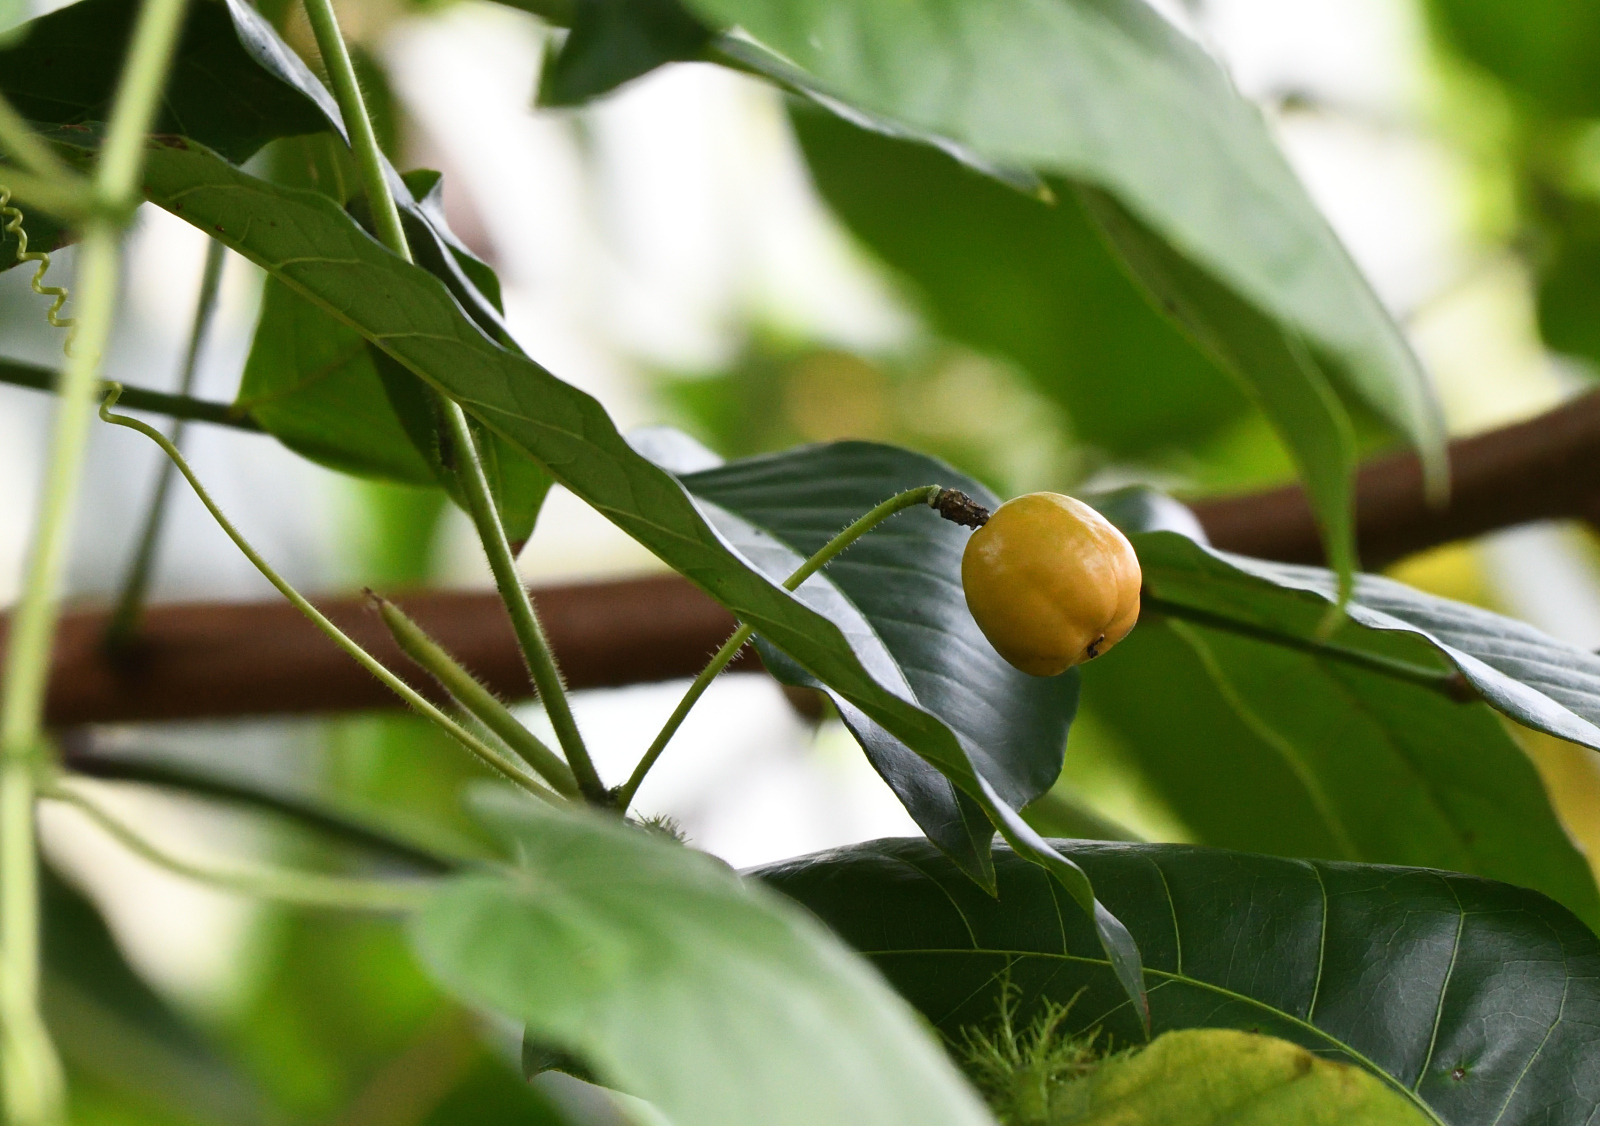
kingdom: Plantae
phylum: Tracheophyta
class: Magnoliopsida
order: Malpighiales
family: Passifloraceae
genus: Passiflora
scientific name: Passiflora foetida
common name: Fetid passionflower
